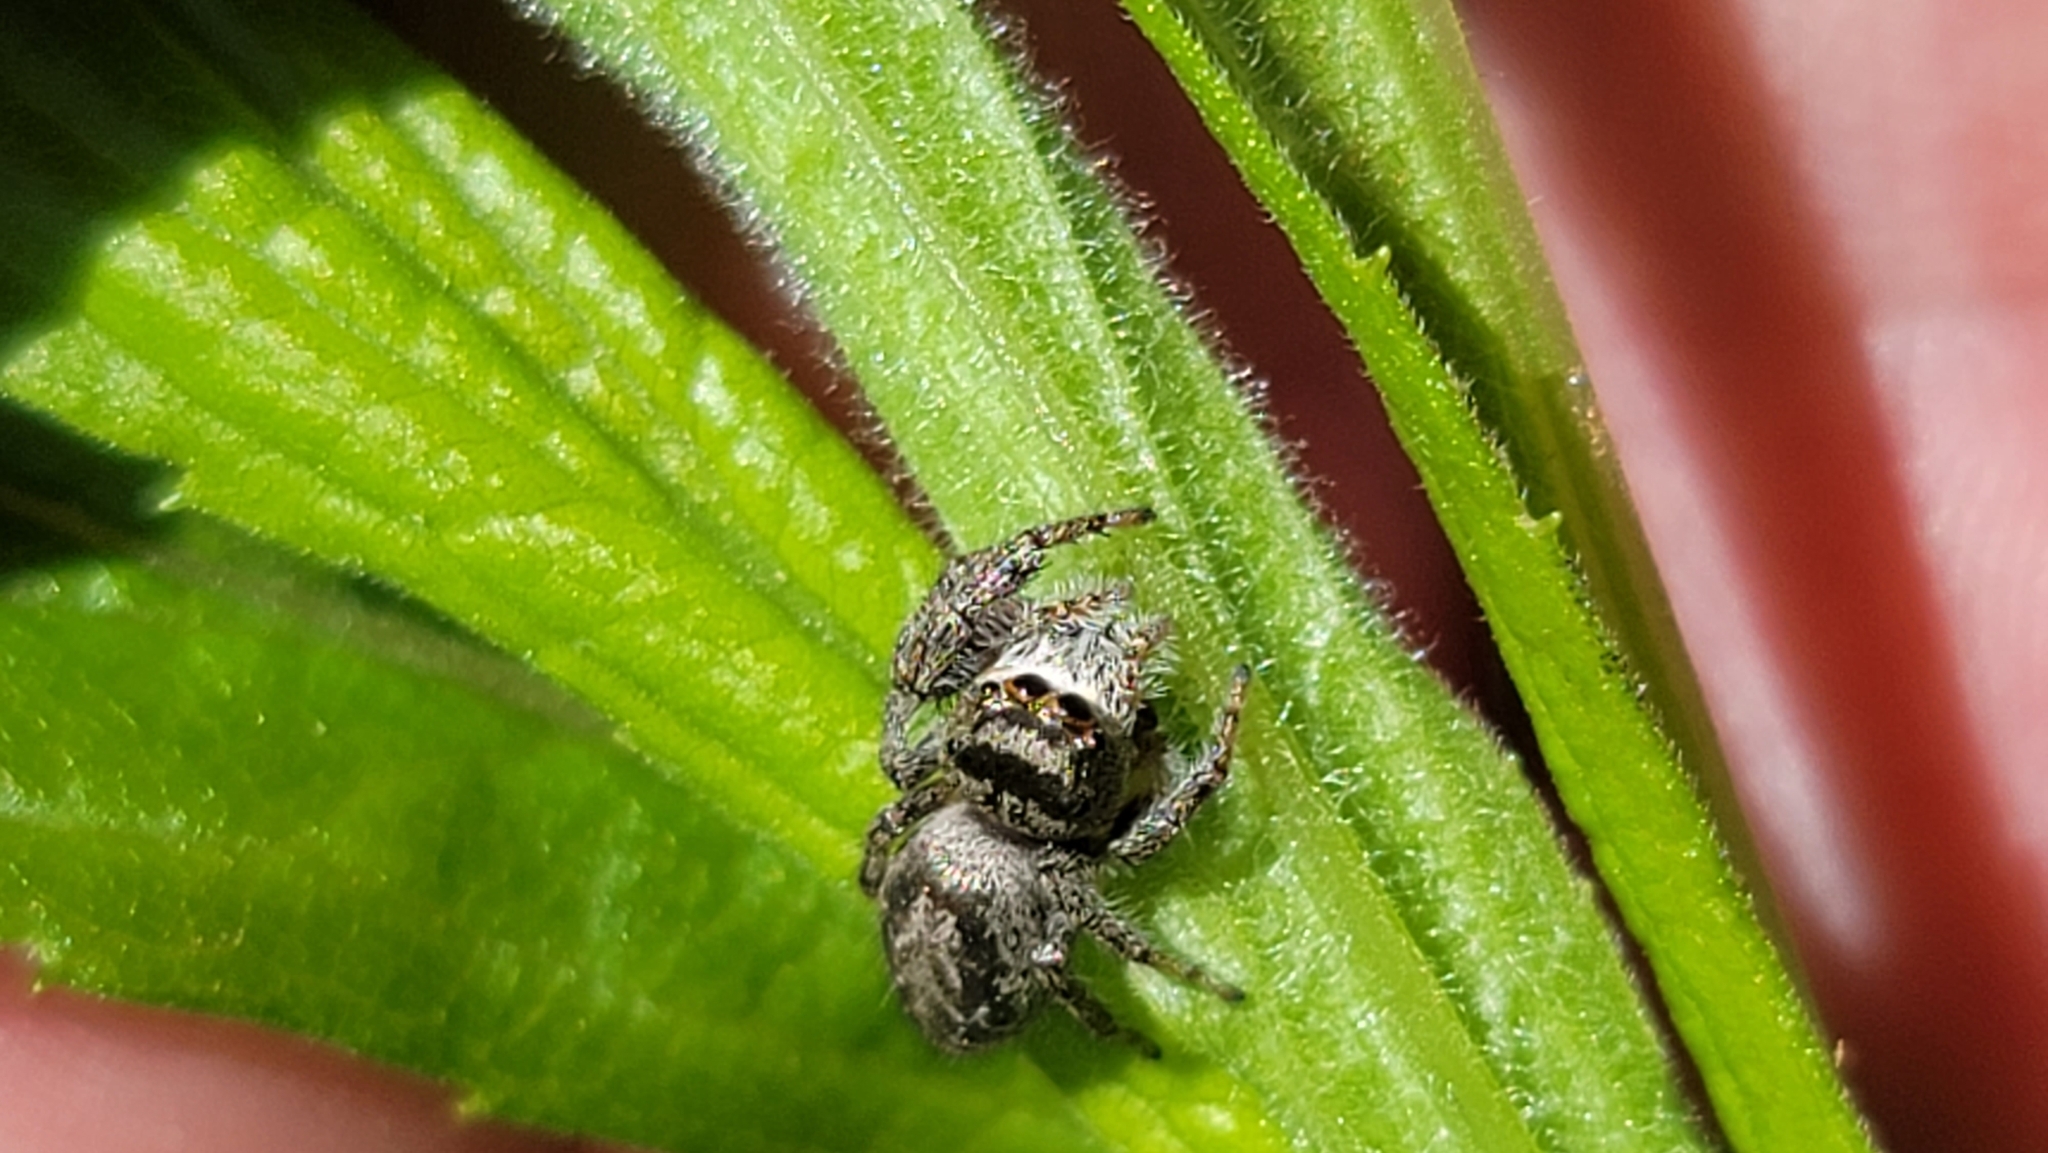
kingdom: Animalia
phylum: Arthropoda
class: Arachnida
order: Araneae
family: Salticidae
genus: Eris
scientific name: Eris militaris
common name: Bronze jumper
